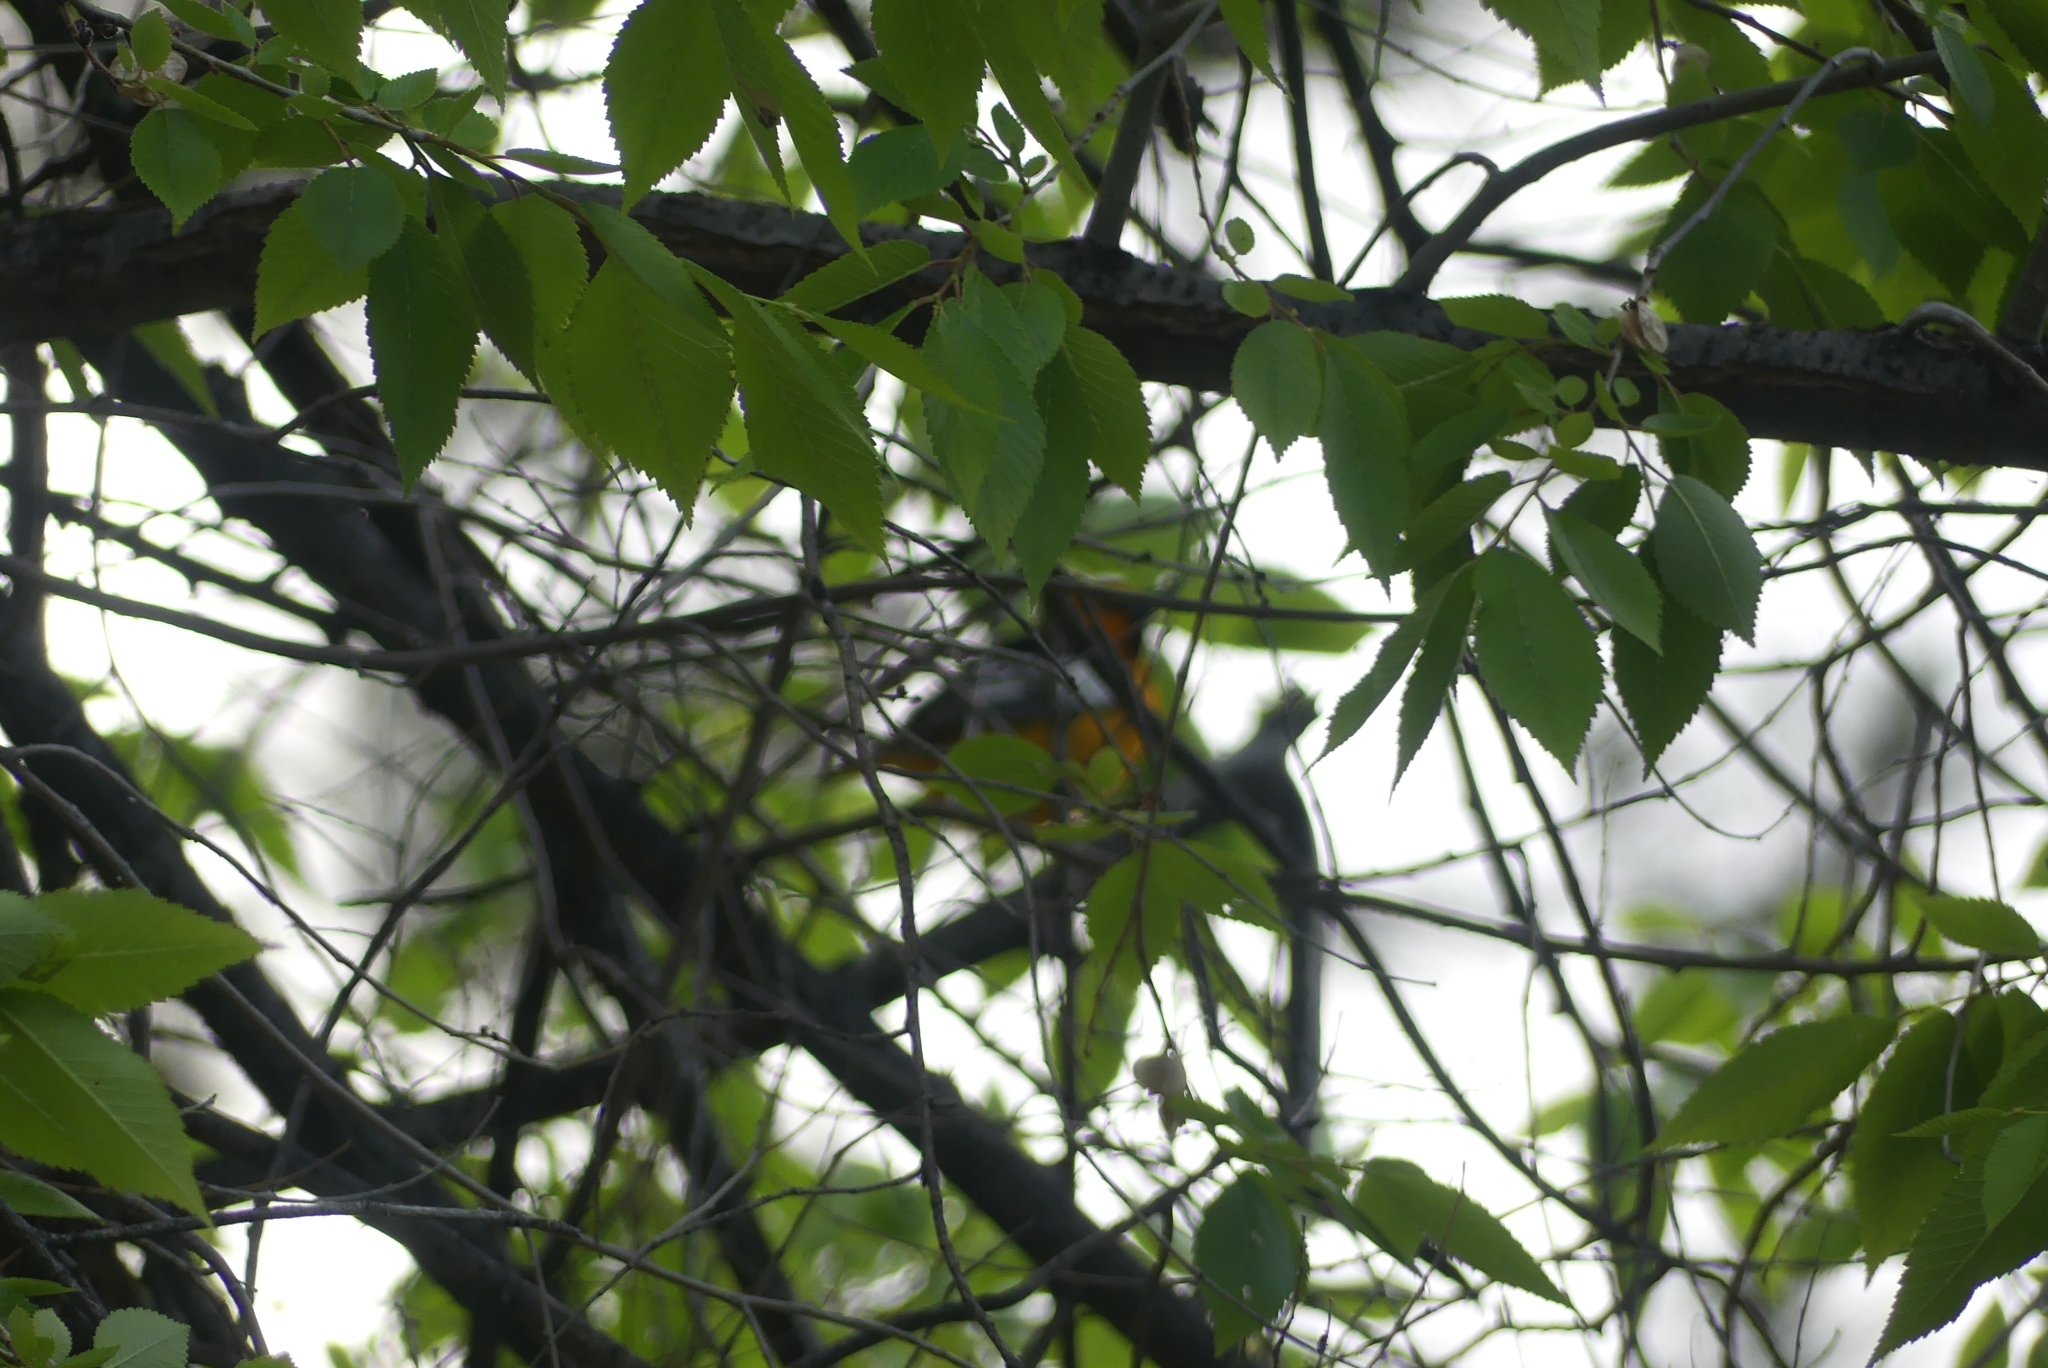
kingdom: Animalia
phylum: Chordata
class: Aves
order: Passeriformes
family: Icteridae
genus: Icterus
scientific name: Icterus bullockii
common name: Bullock's oriole
